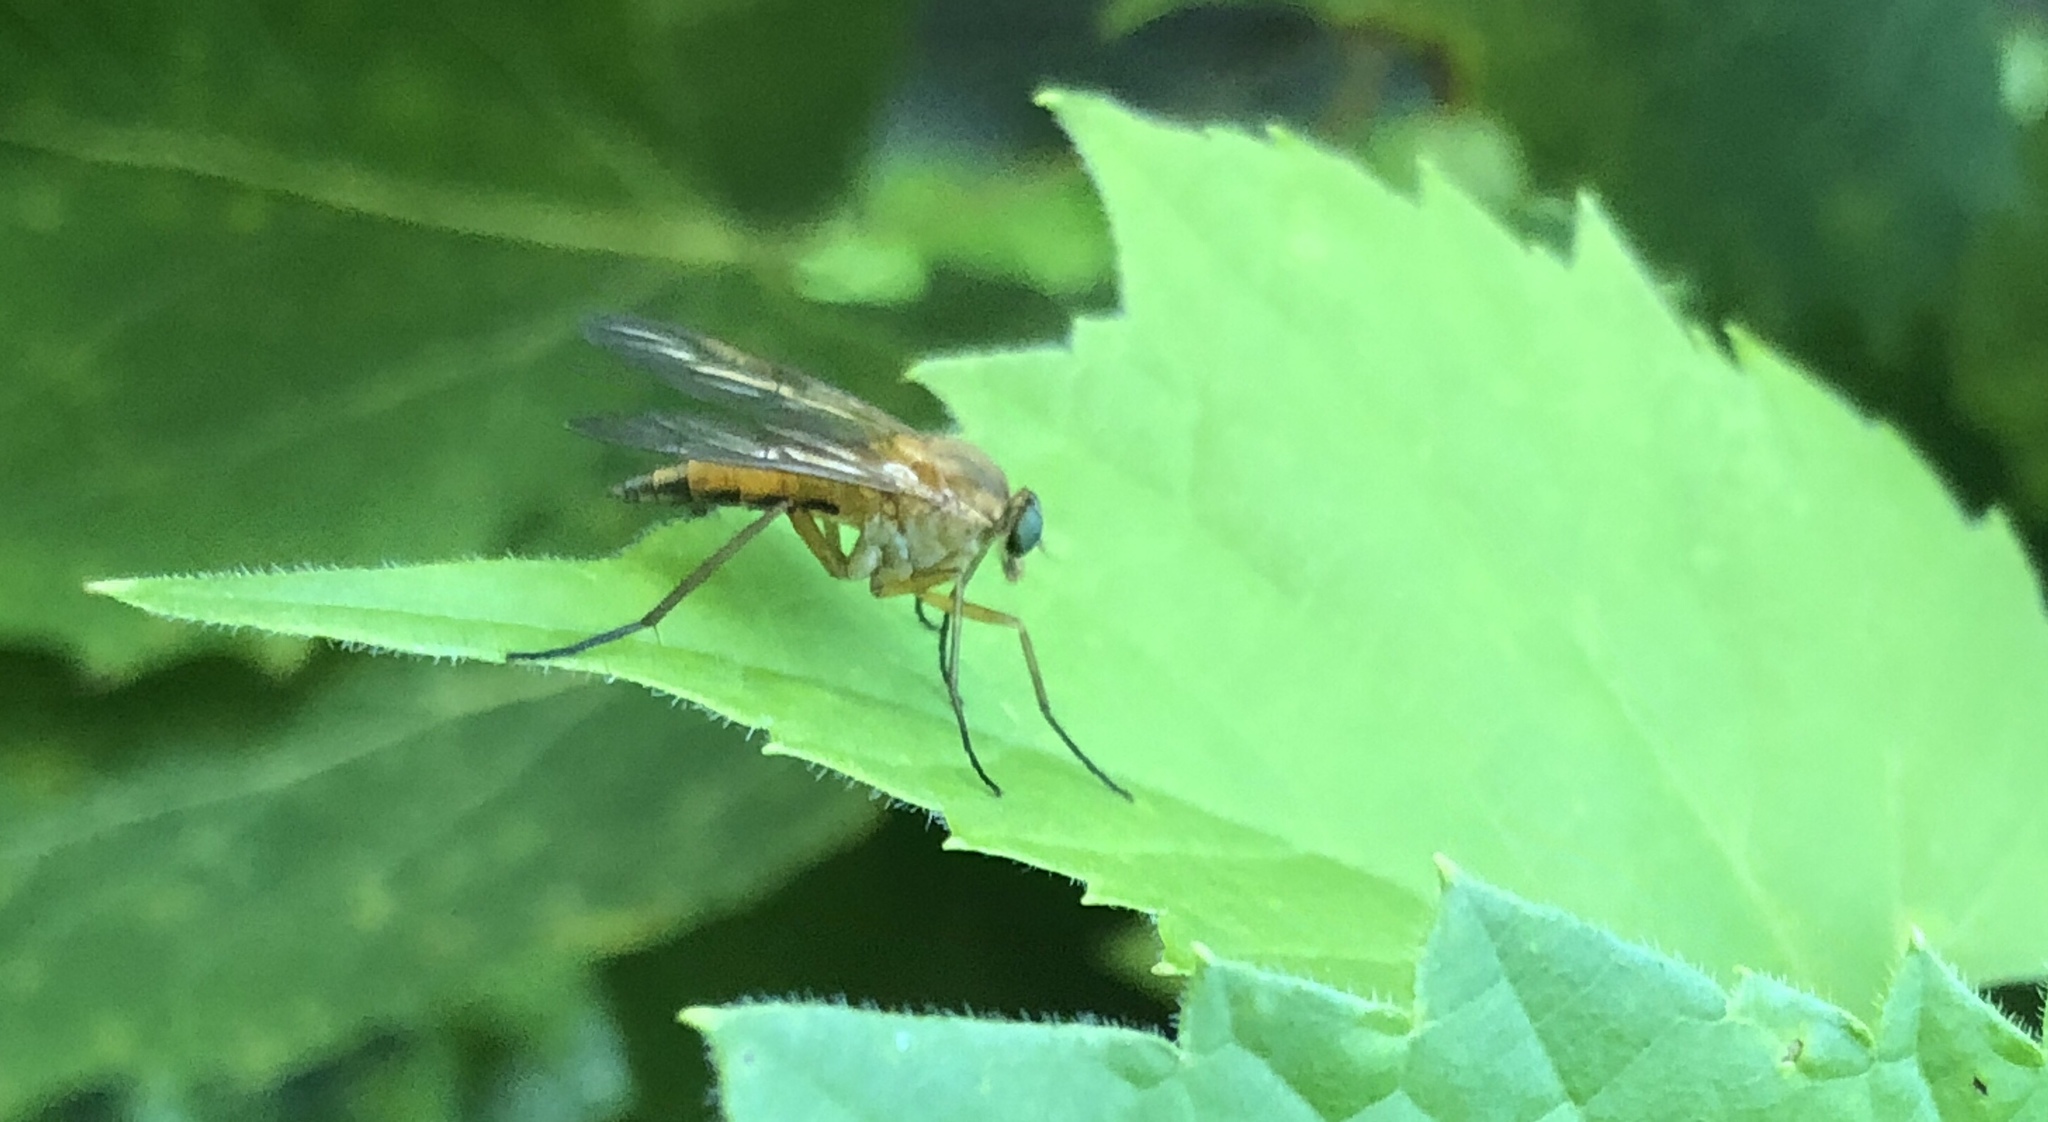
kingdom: Animalia
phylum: Arthropoda
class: Insecta
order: Diptera
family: Rhagionidae
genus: Rhagio
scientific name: Rhagio tringaria
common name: Marsh snipefly
